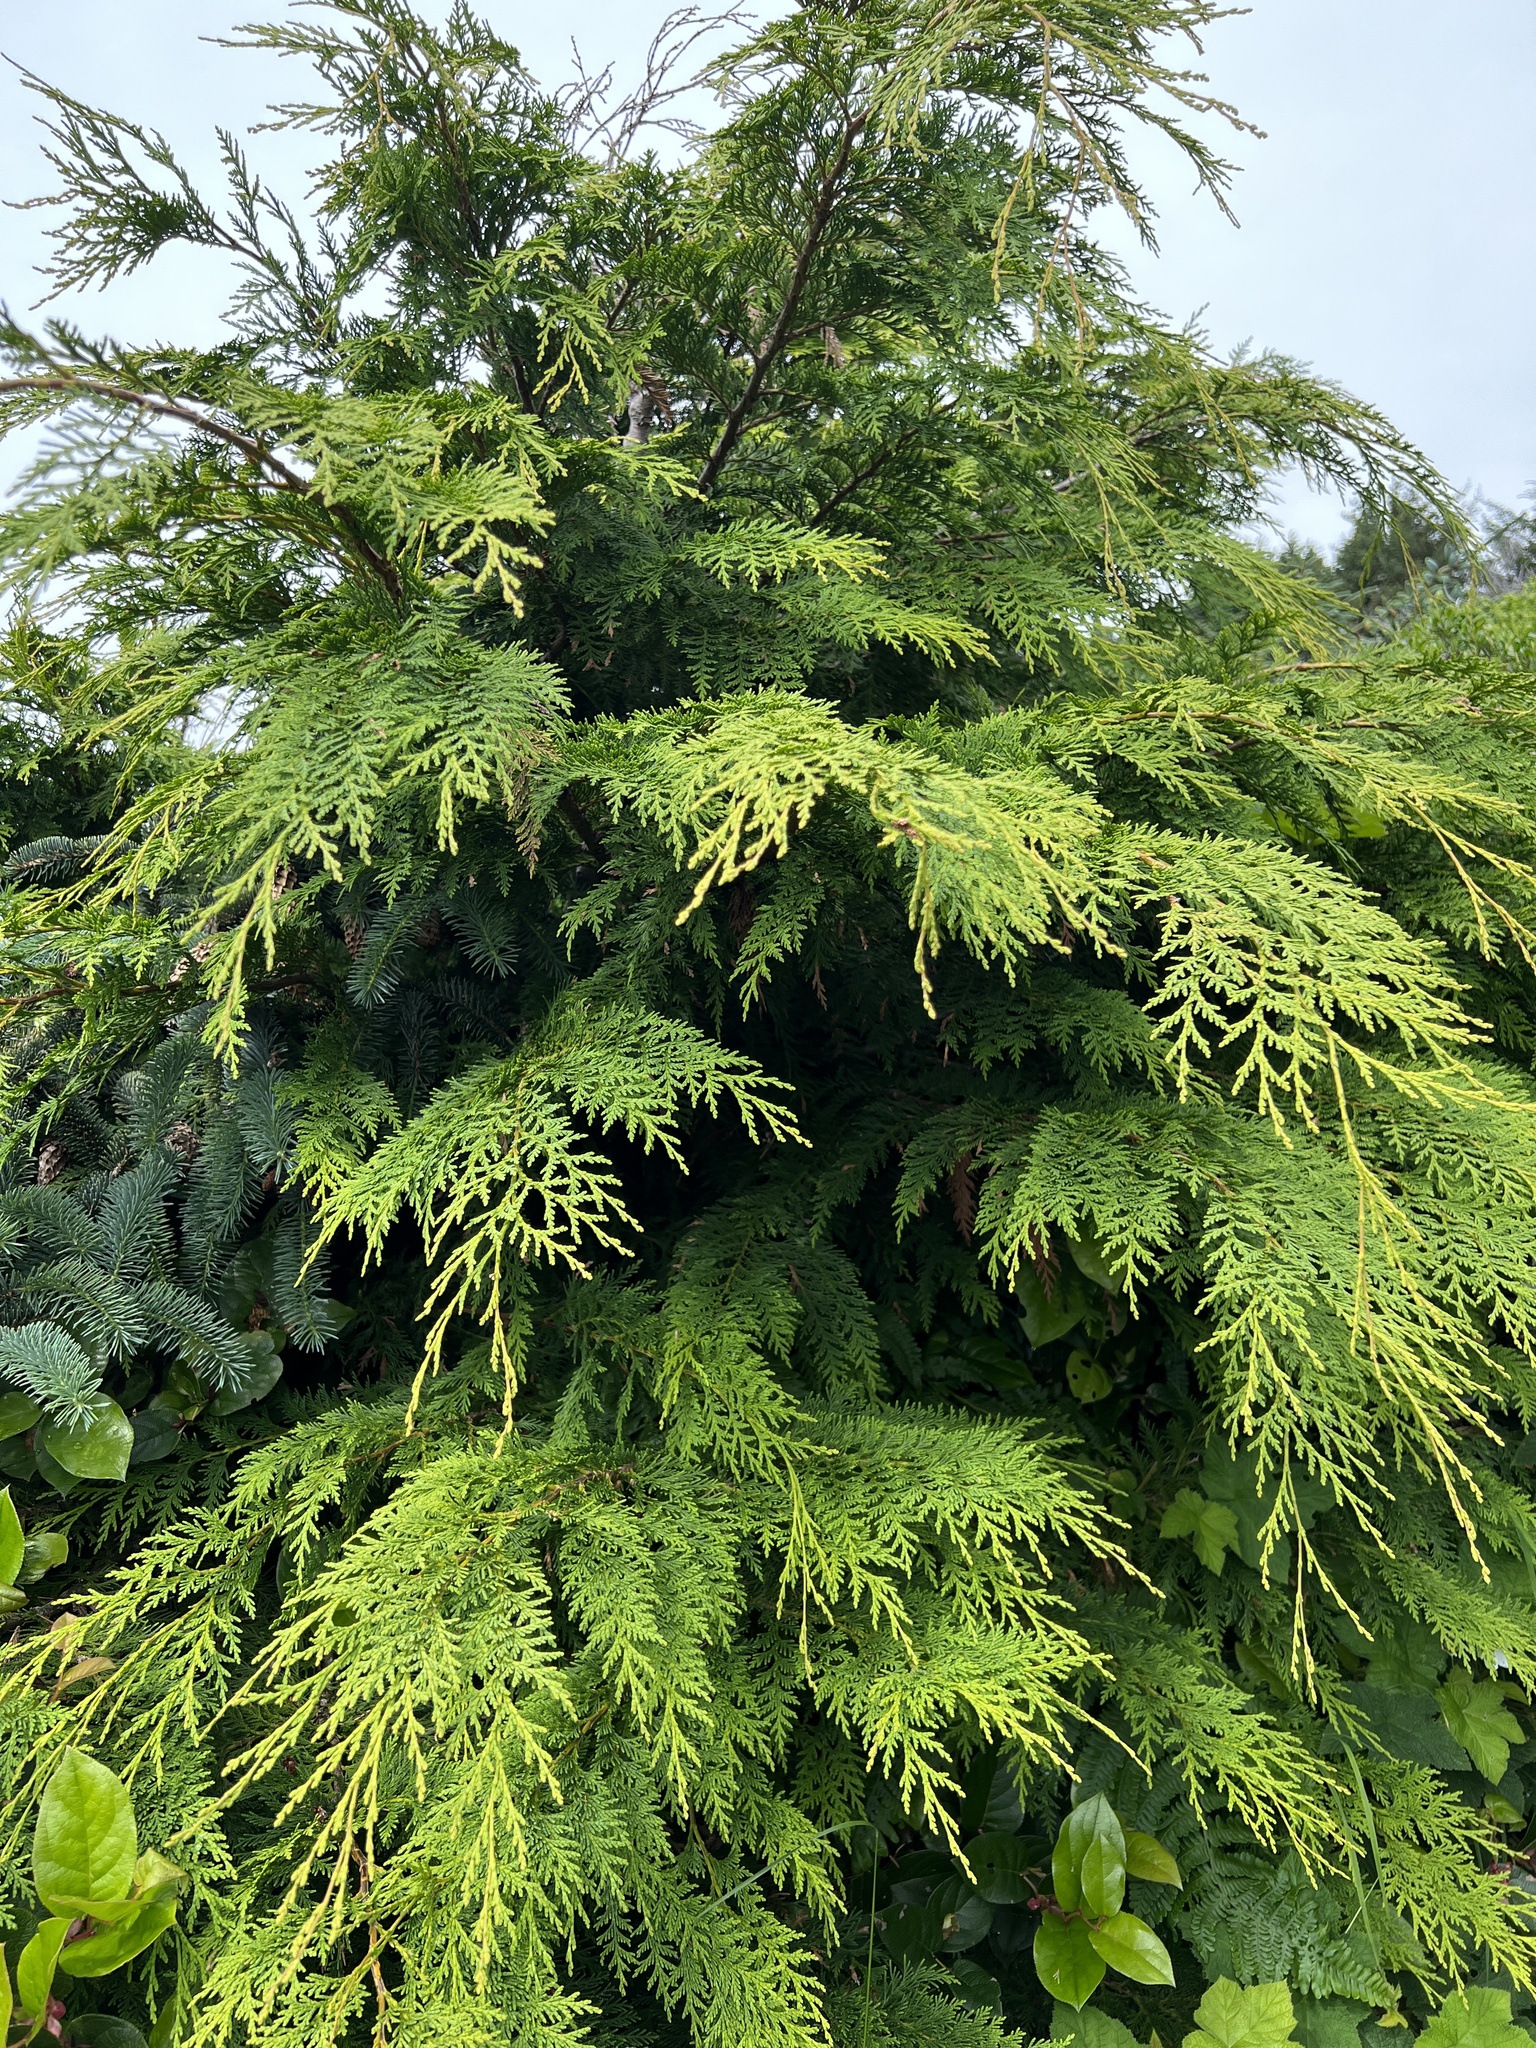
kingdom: Plantae
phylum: Tracheophyta
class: Pinopsida
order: Pinales
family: Cupressaceae
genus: Chamaecyparis
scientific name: Chamaecyparis lawsoniana
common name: Lawson's cypress
